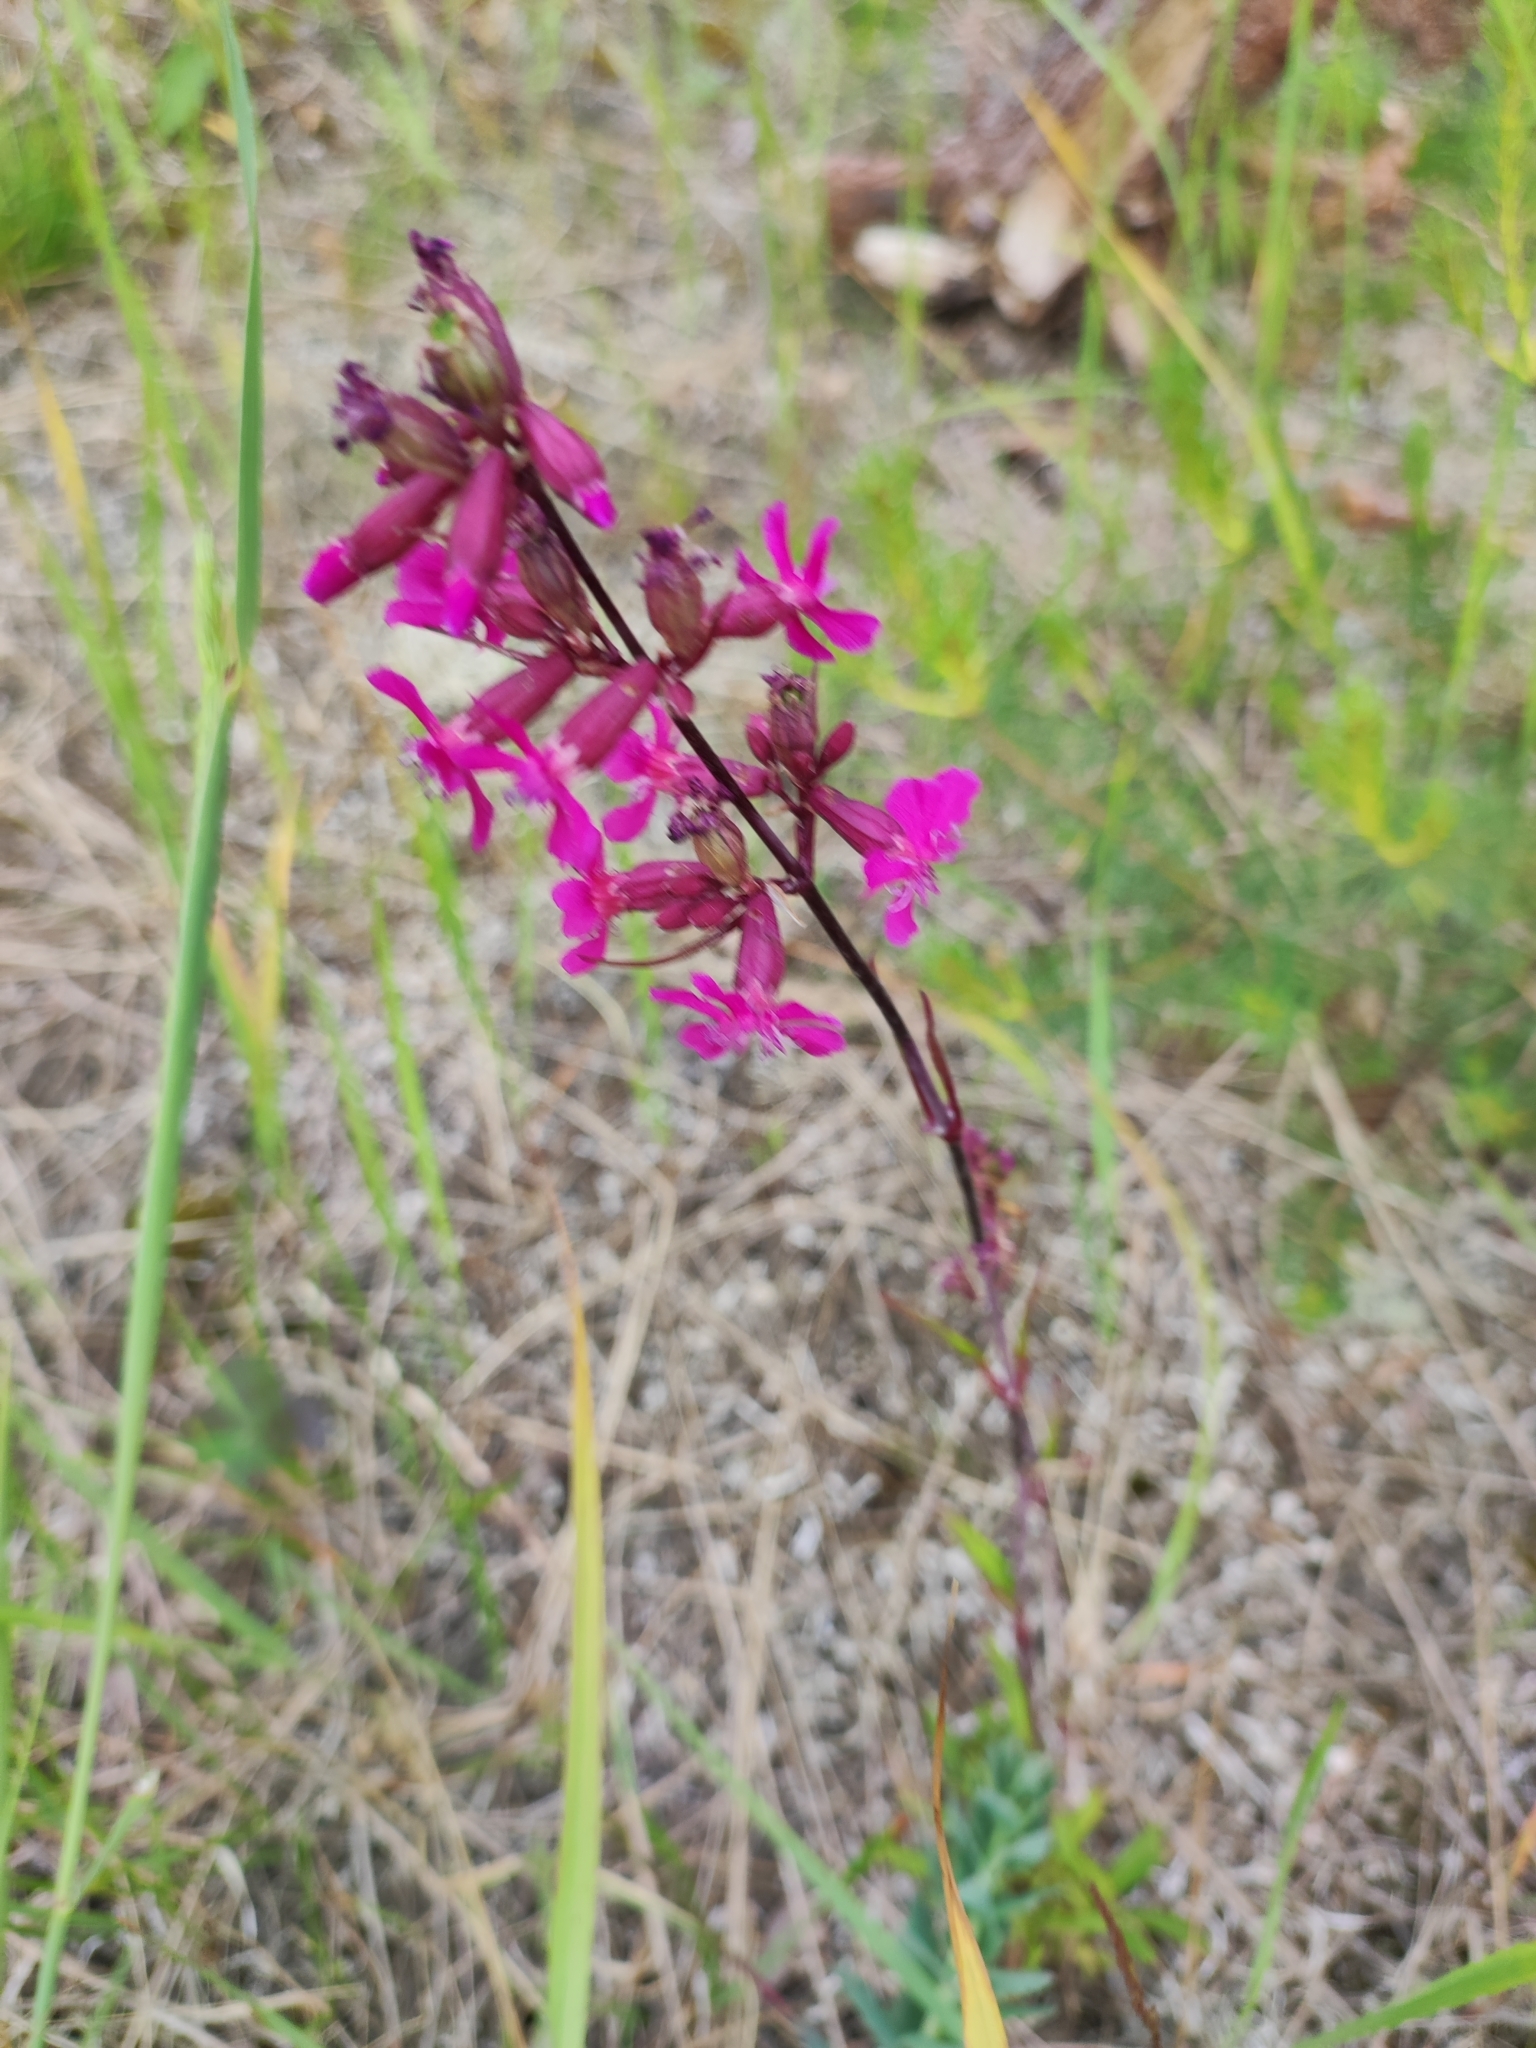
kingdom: Plantae
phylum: Tracheophyta
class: Magnoliopsida
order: Caryophyllales
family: Caryophyllaceae
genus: Viscaria
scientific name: Viscaria vulgaris
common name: Clammy campion
